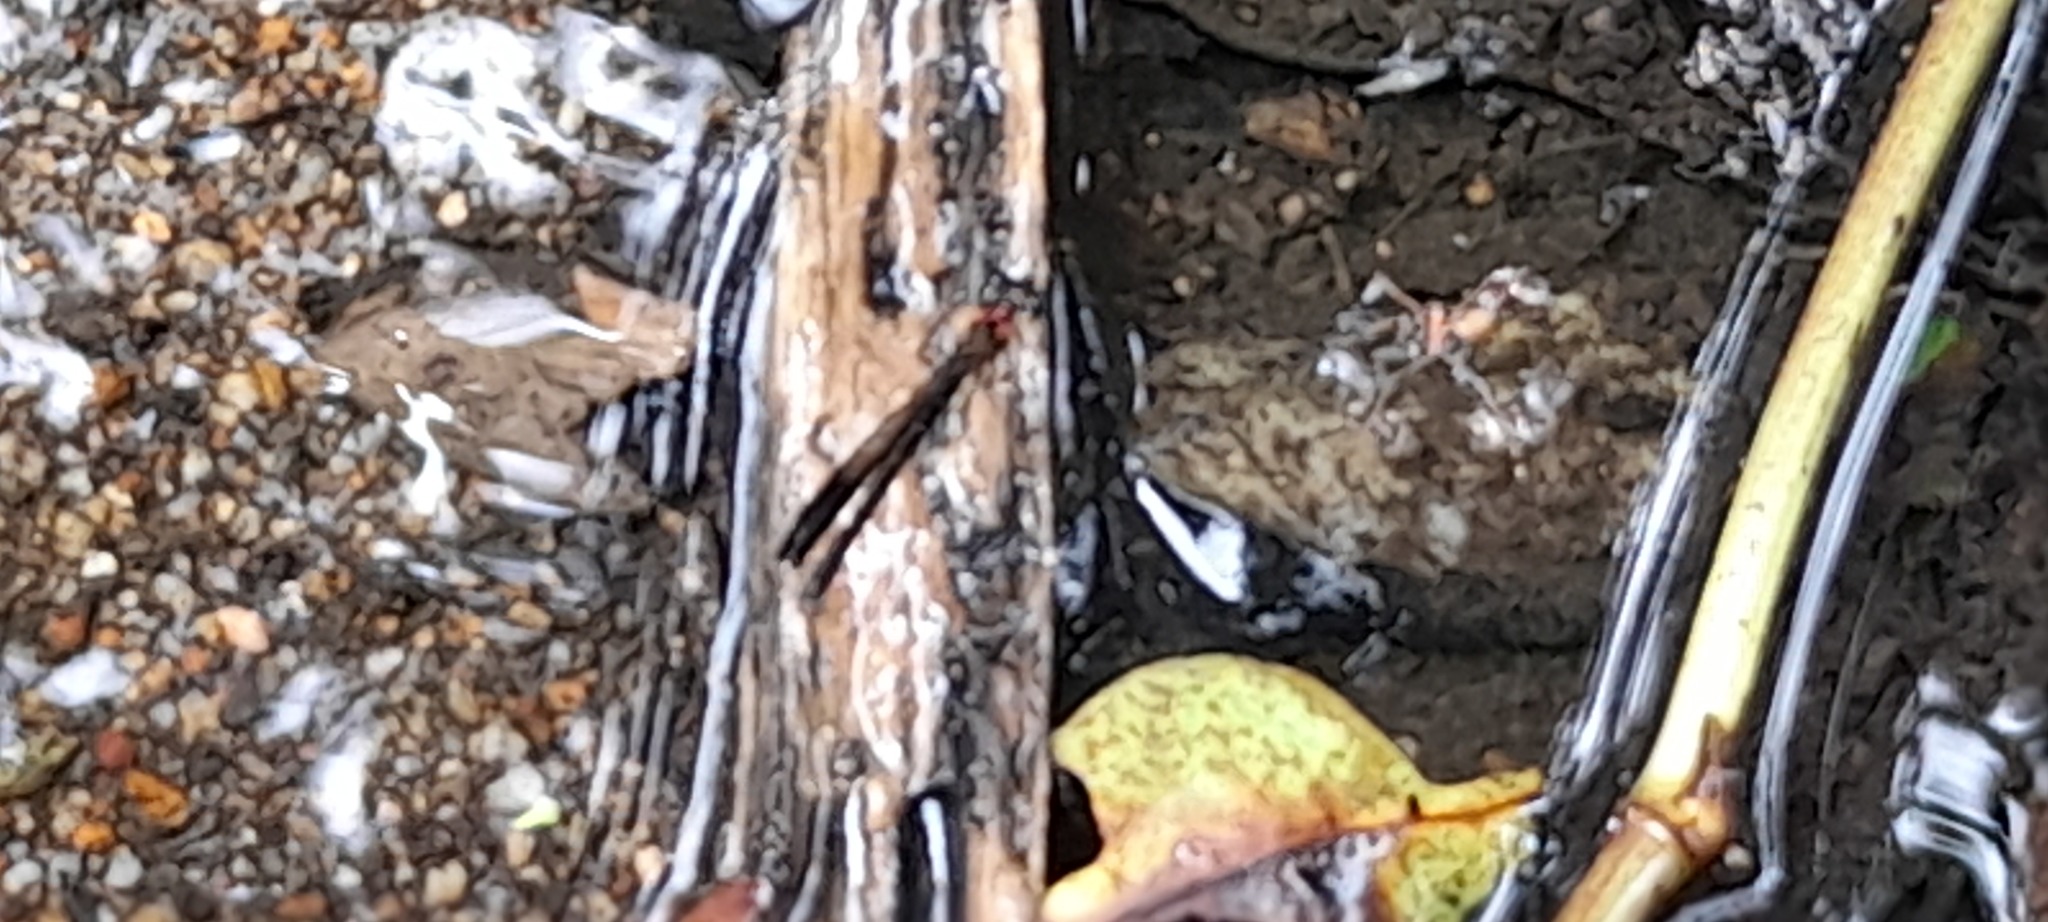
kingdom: Animalia
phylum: Arthropoda
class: Insecta
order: Odonata
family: Chlorocyphidae
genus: Heliocypha
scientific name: Heliocypha bisignata
